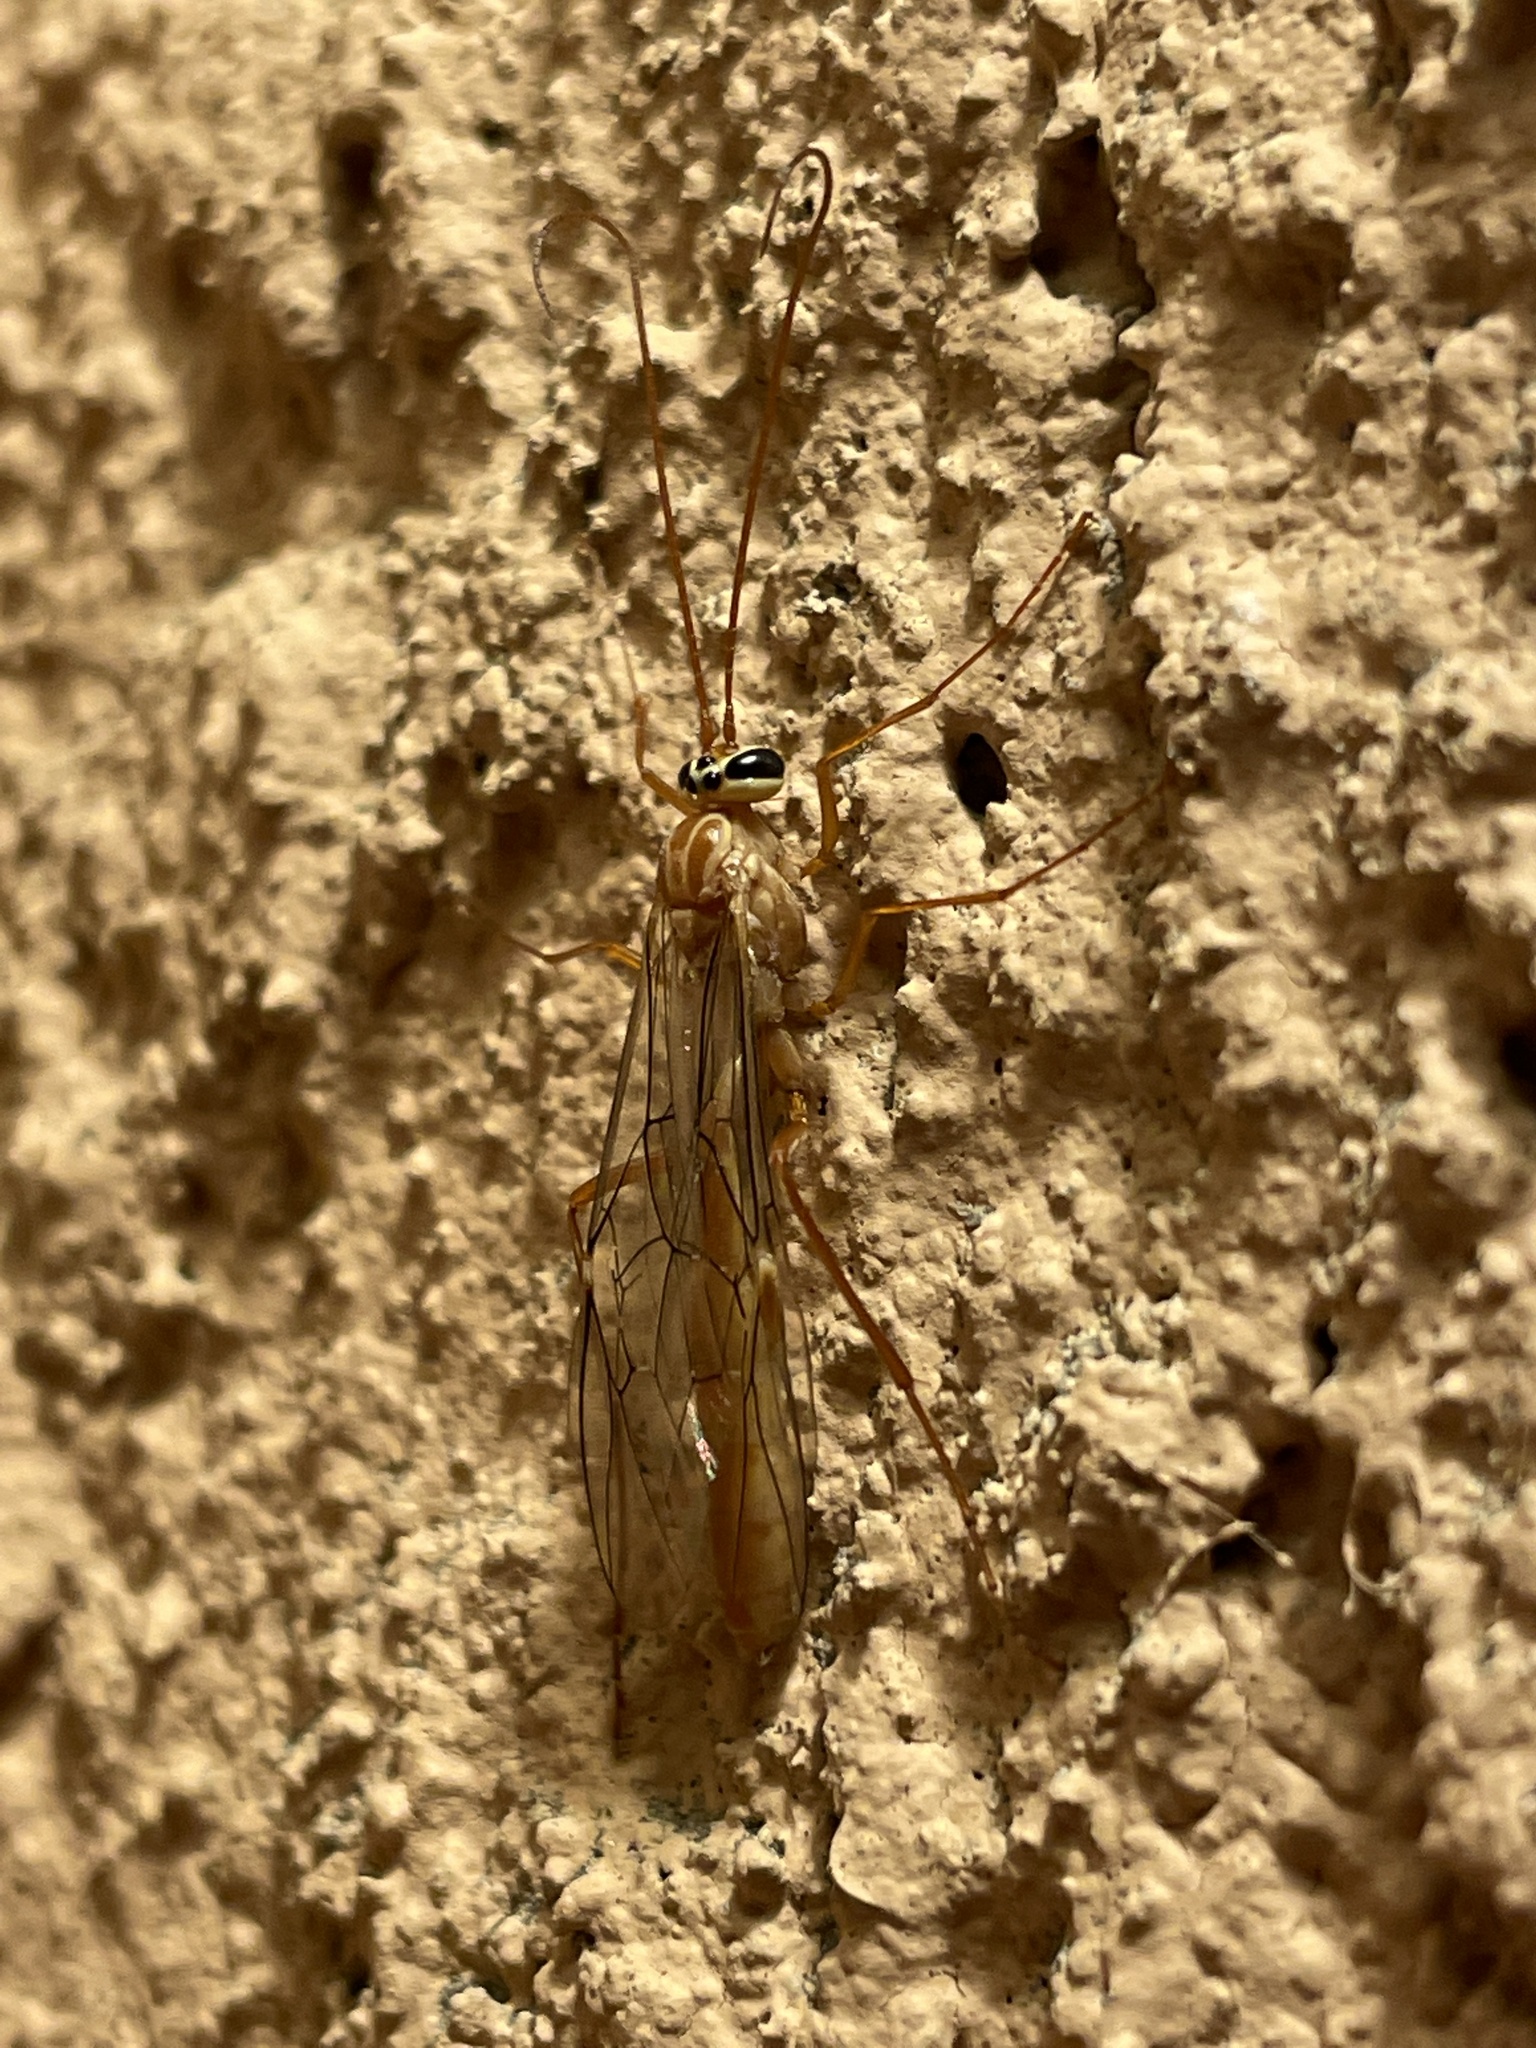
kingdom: Animalia
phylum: Arthropoda
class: Insecta
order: Hymenoptera
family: Ichneumonidae
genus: Ophion
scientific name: Ophion
